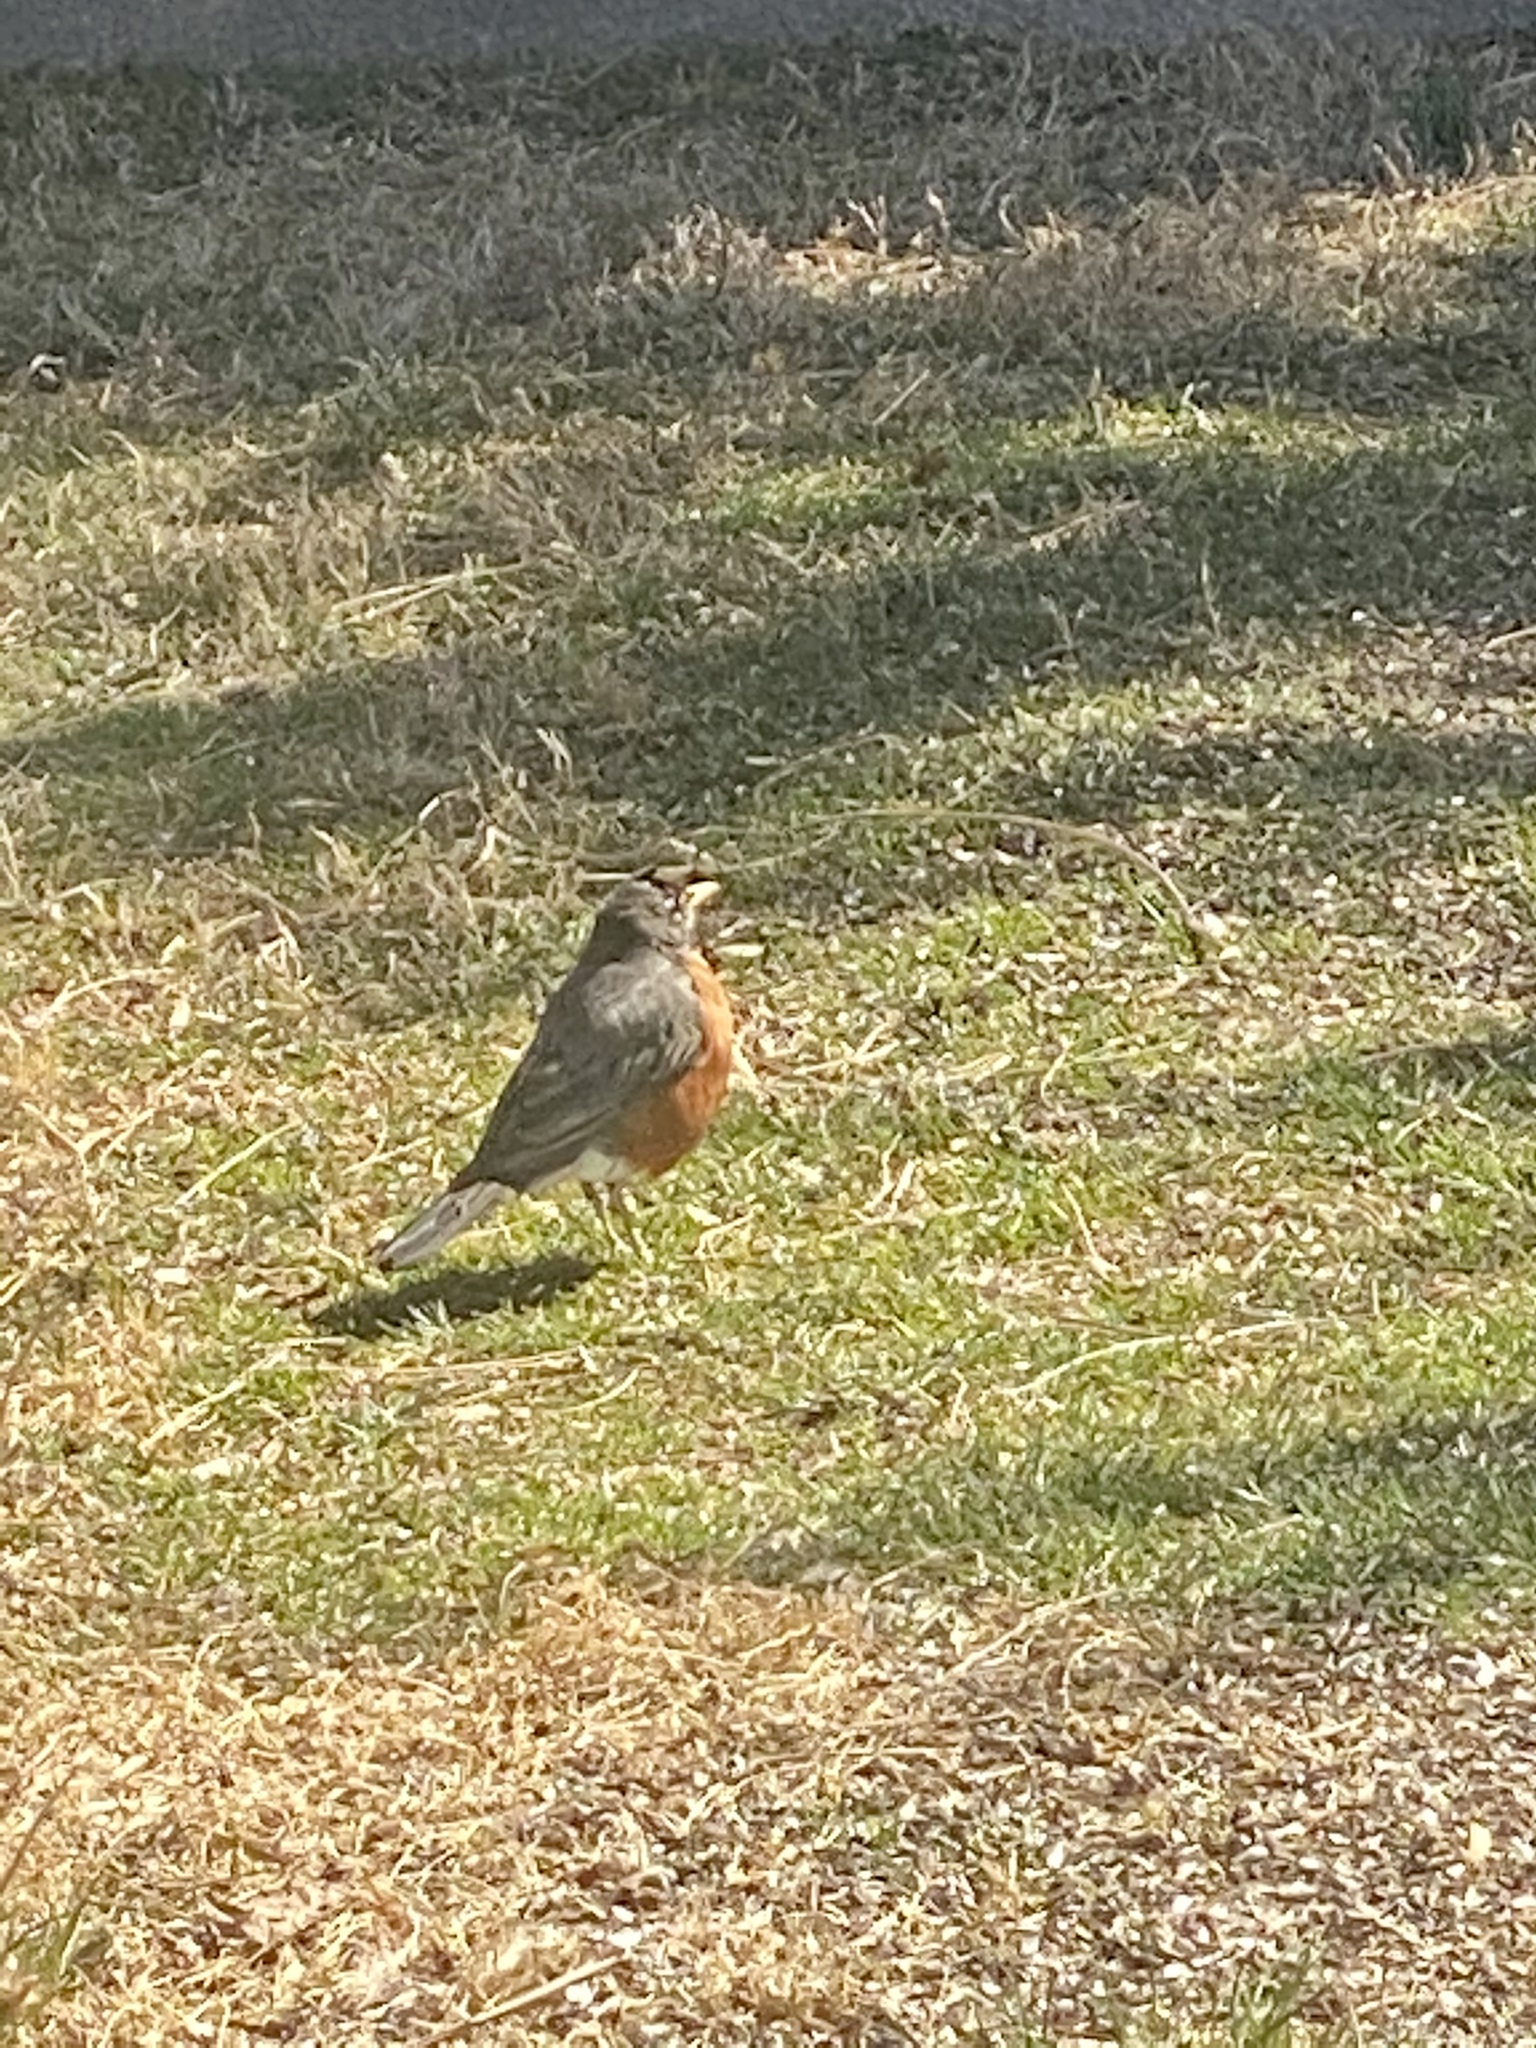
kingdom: Animalia
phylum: Chordata
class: Aves
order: Passeriformes
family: Turdidae
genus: Turdus
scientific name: Turdus migratorius
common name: American robin
